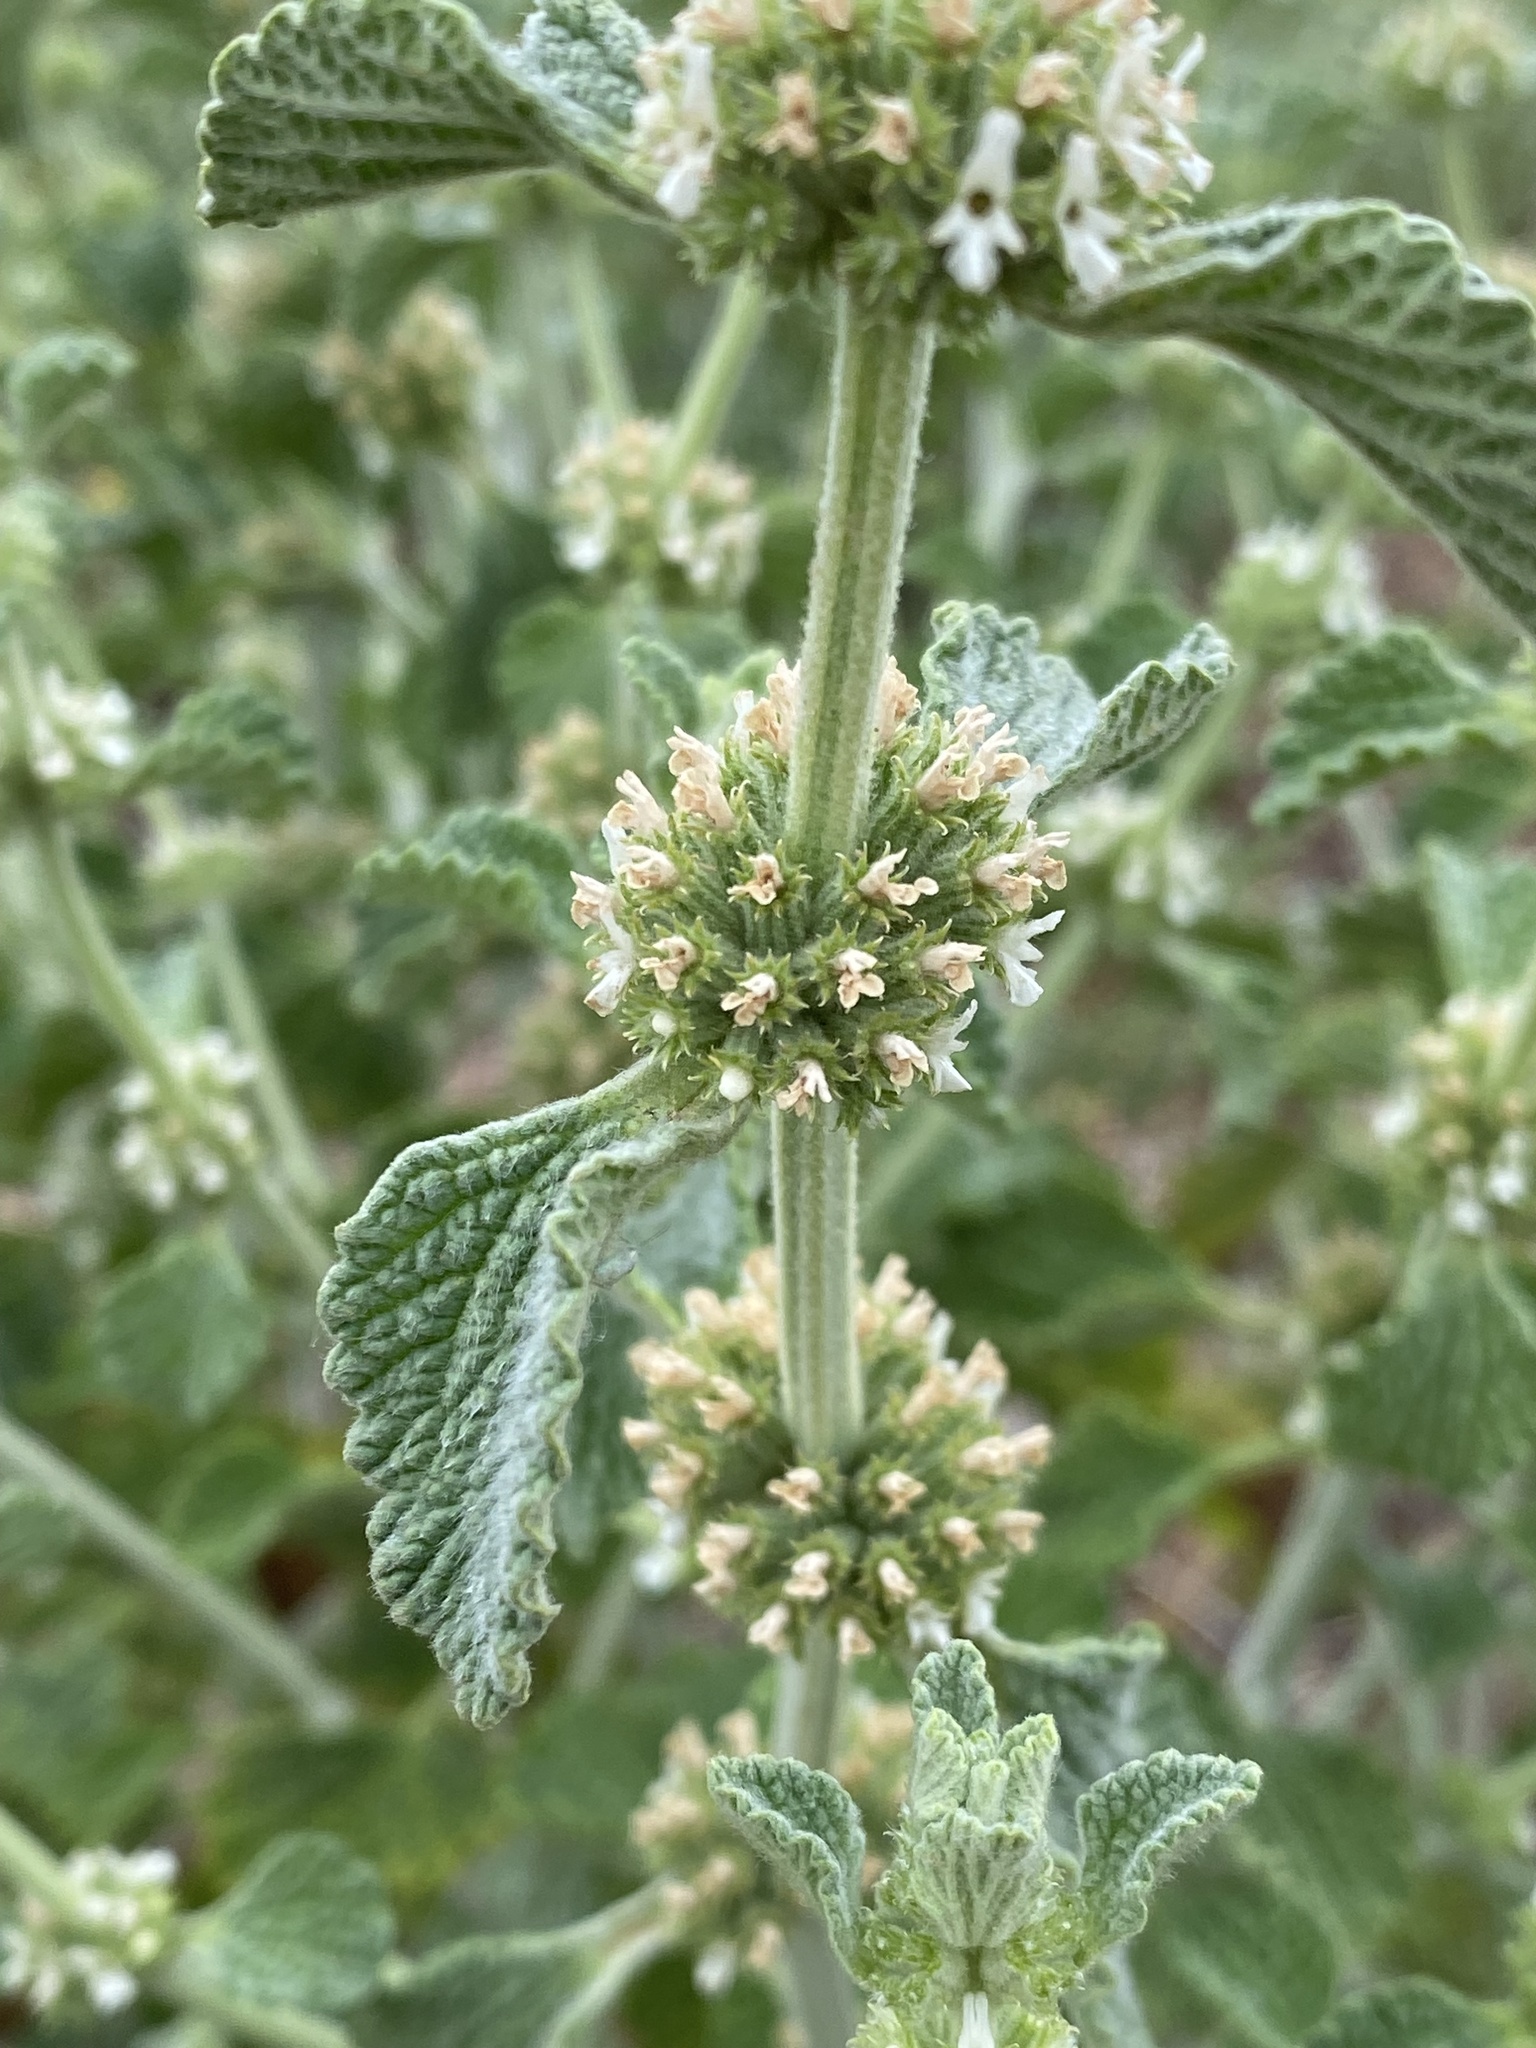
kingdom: Plantae
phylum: Tracheophyta
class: Magnoliopsida
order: Lamiales
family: Lamiaceae
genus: Marrubium
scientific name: Marrubium vulgare
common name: Horehound
